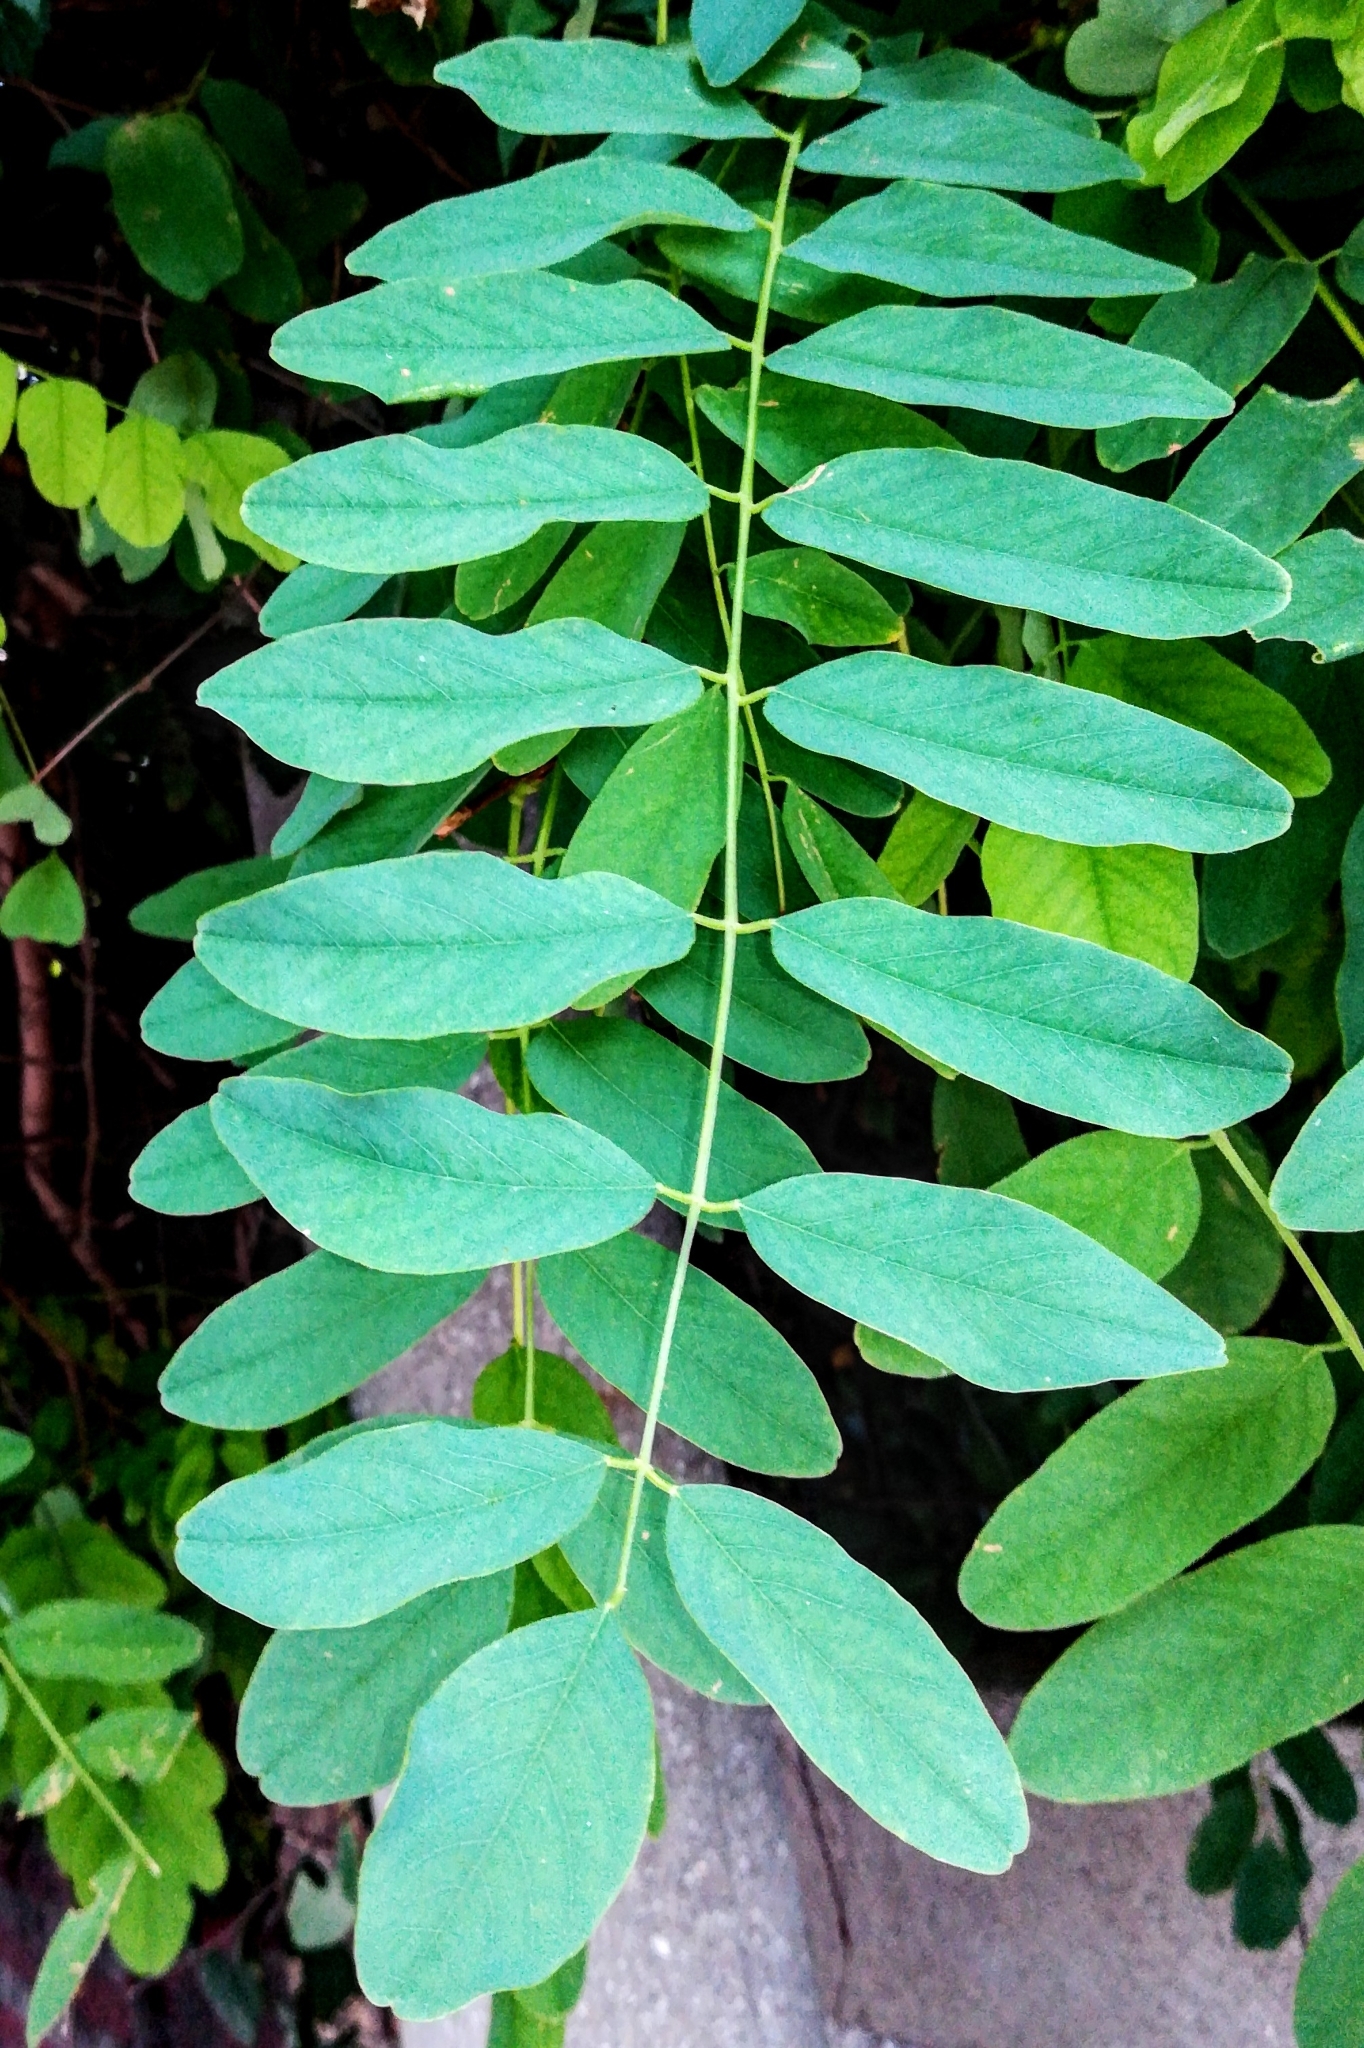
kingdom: Plantae
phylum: Tracheophyta
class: Magnoliopsida
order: Fabales
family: Fabaceae
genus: Robinia
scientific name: Robinia pseudoacacia
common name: Black locust
